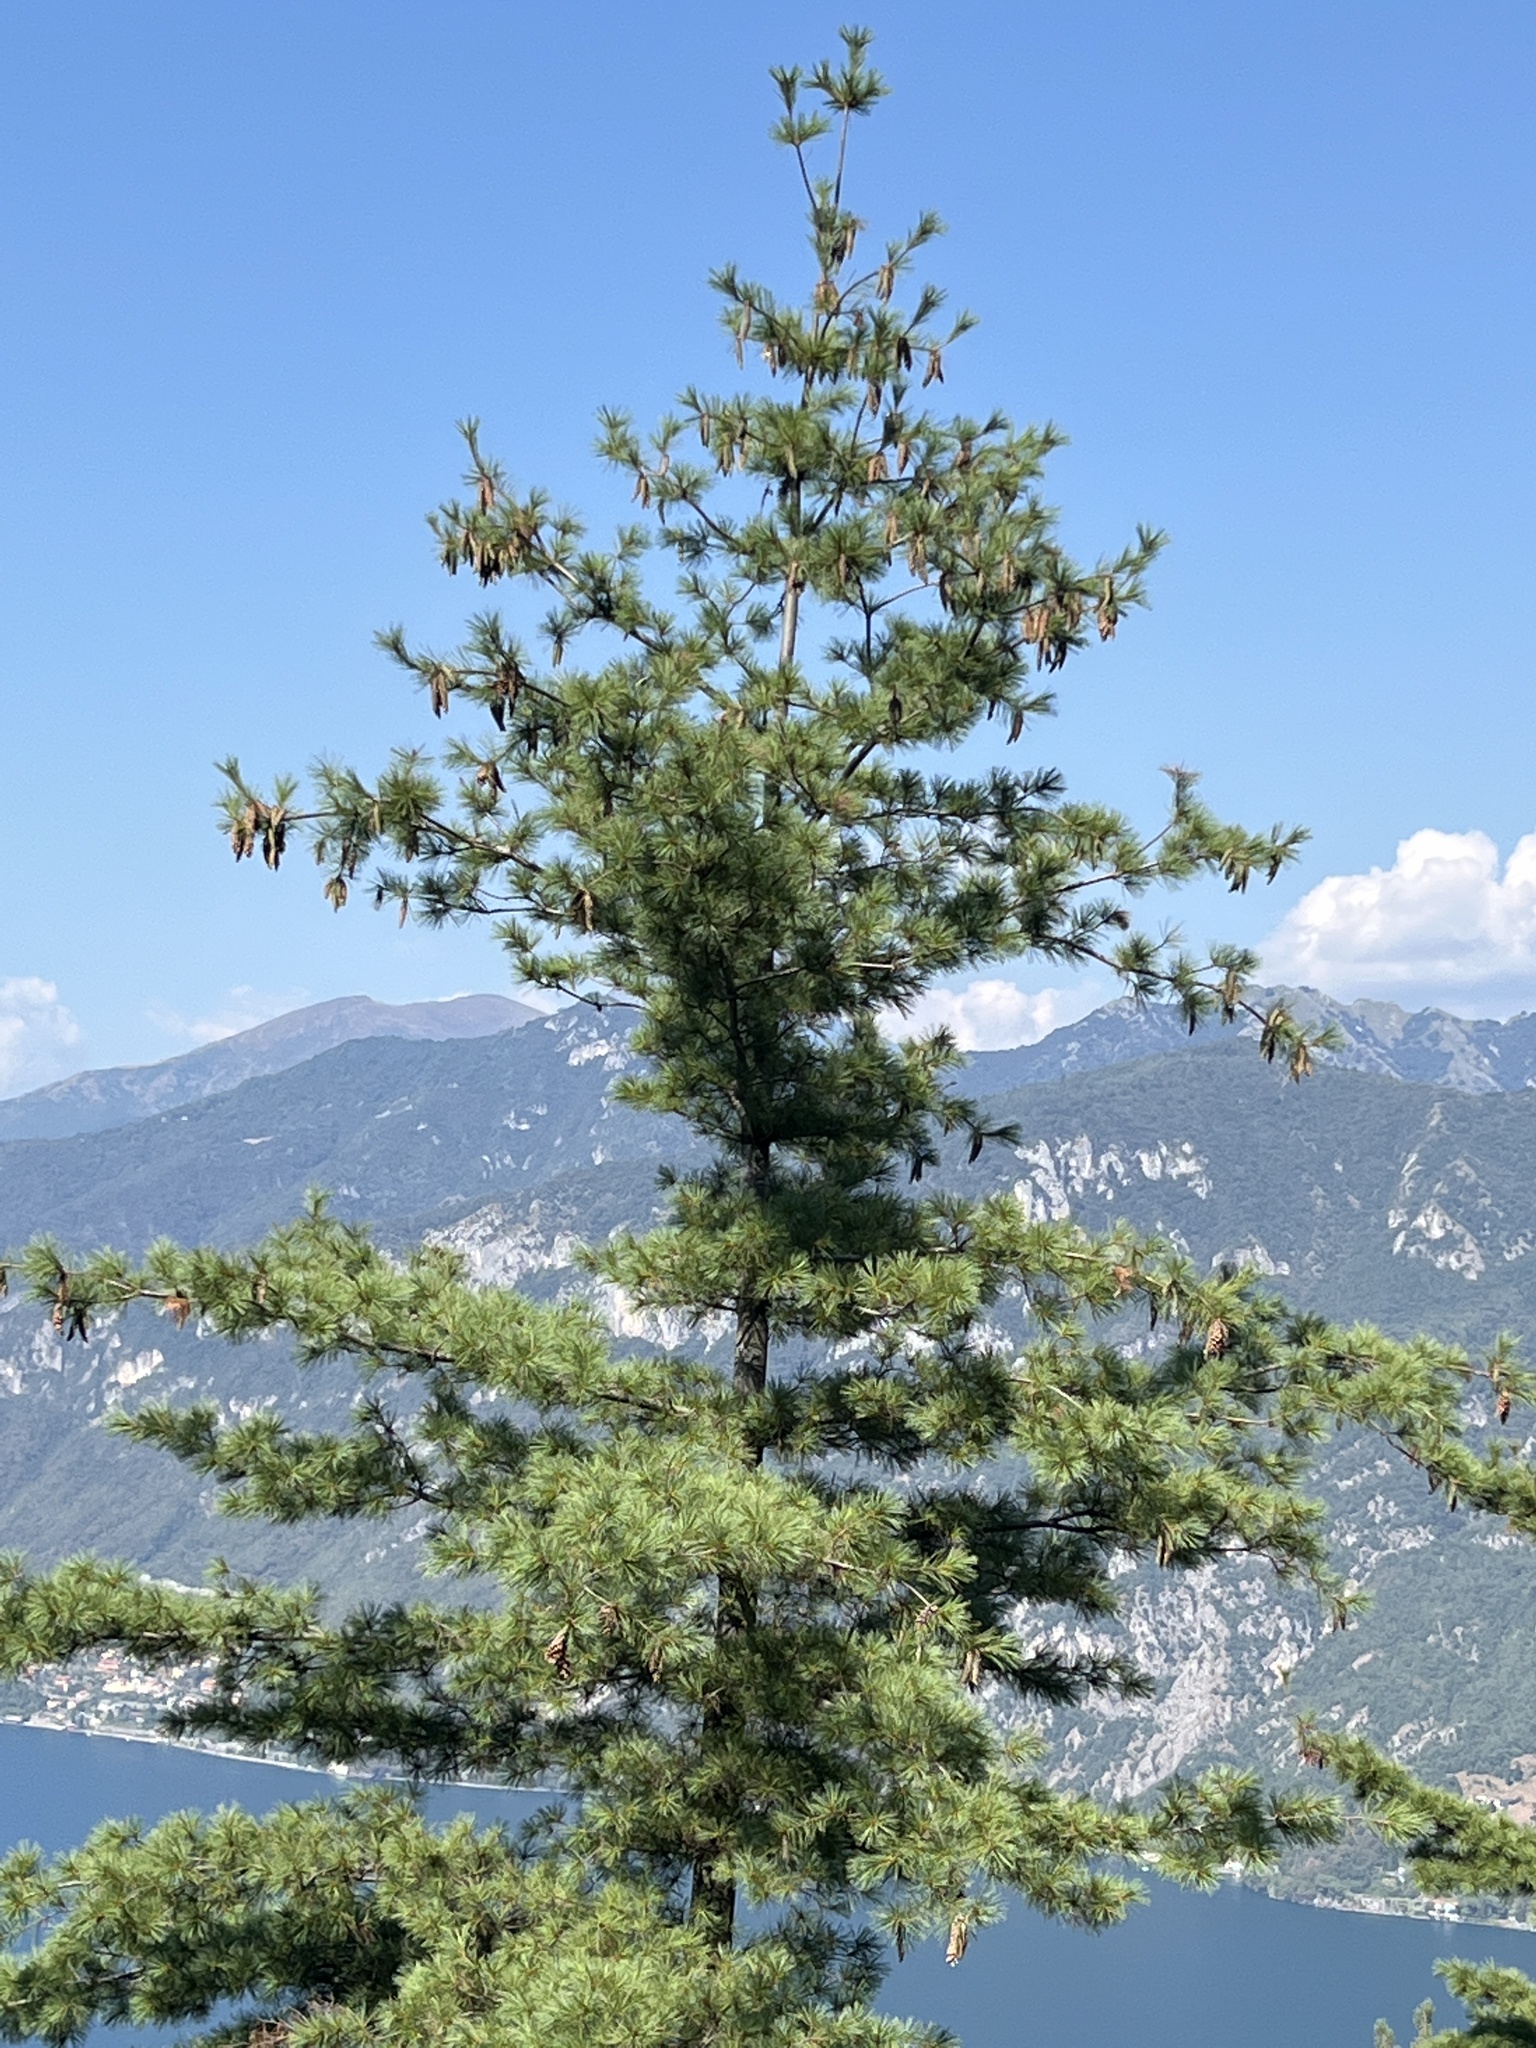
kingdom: Plantae
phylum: Tracheophyta
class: Pinopsida
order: Pinales
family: Pinaceae
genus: Pinus
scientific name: Pinus strobus
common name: Weymouth pine
